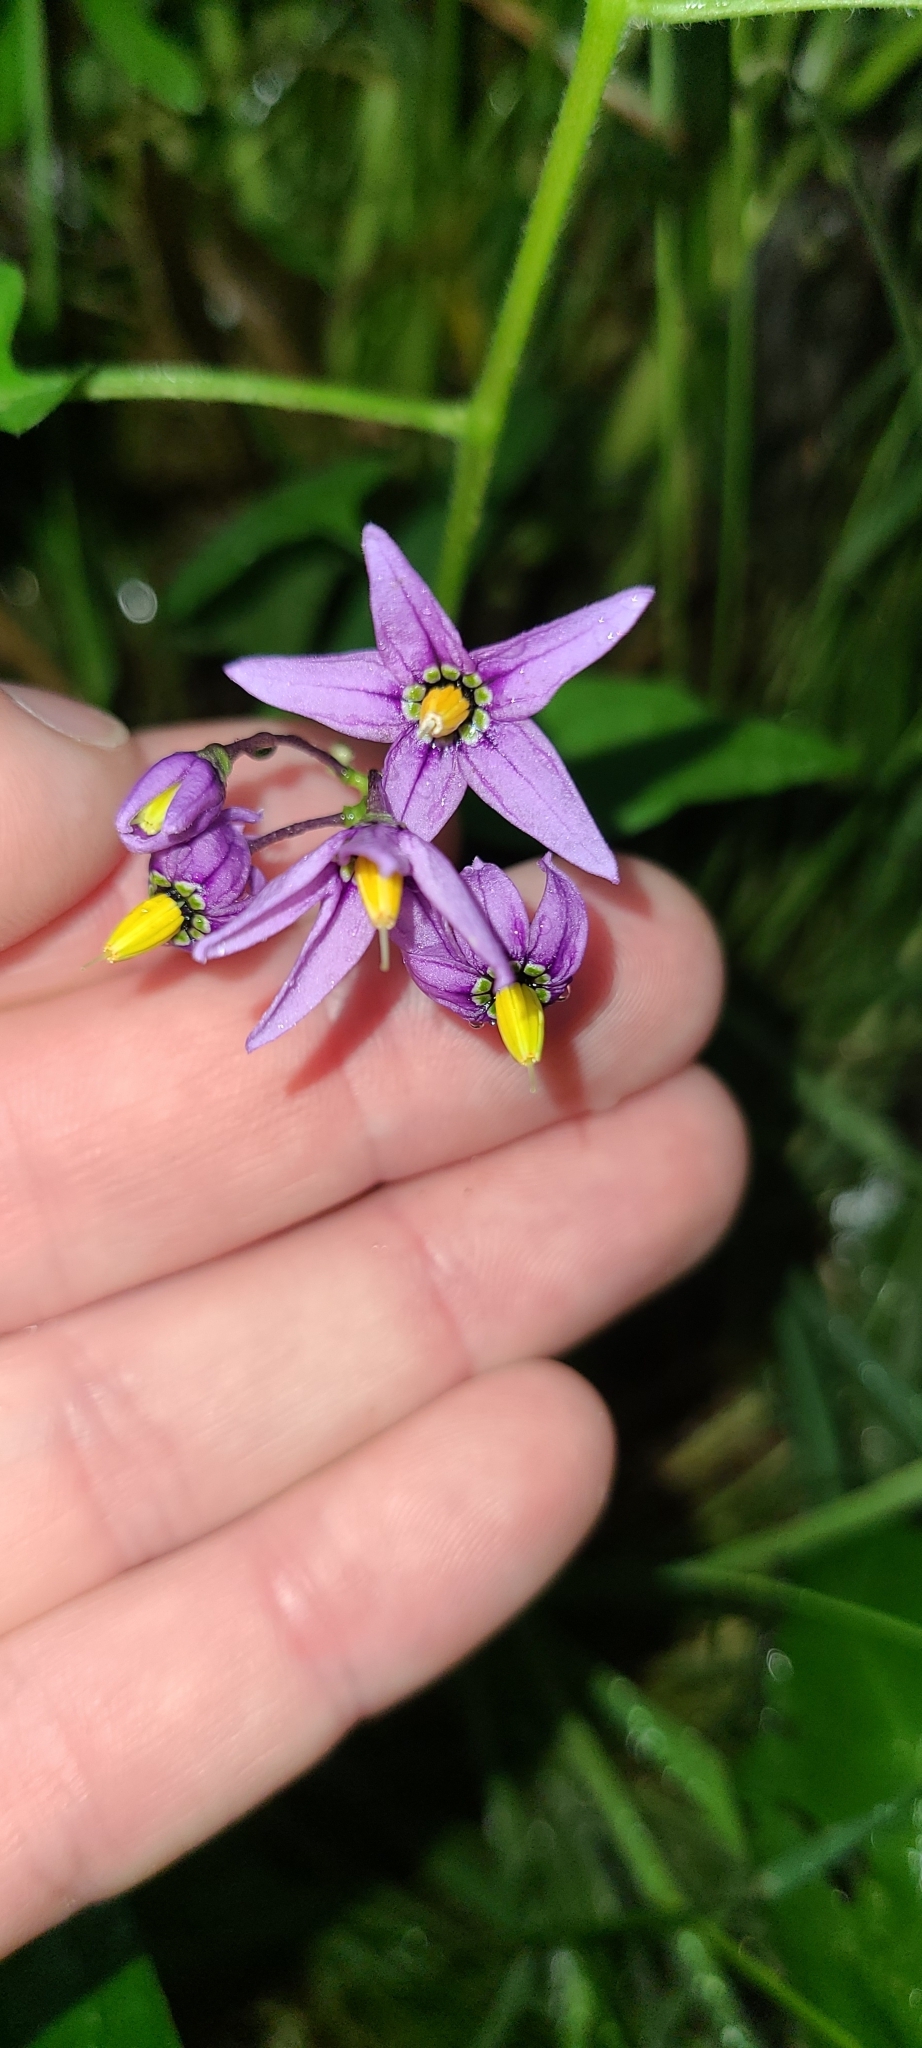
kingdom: Plantae
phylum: Tracheophyta
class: Magnoliopsida
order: Solanales
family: Solanaceae
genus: Solanum
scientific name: Solanum dulcamara
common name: Climbing nightshade
